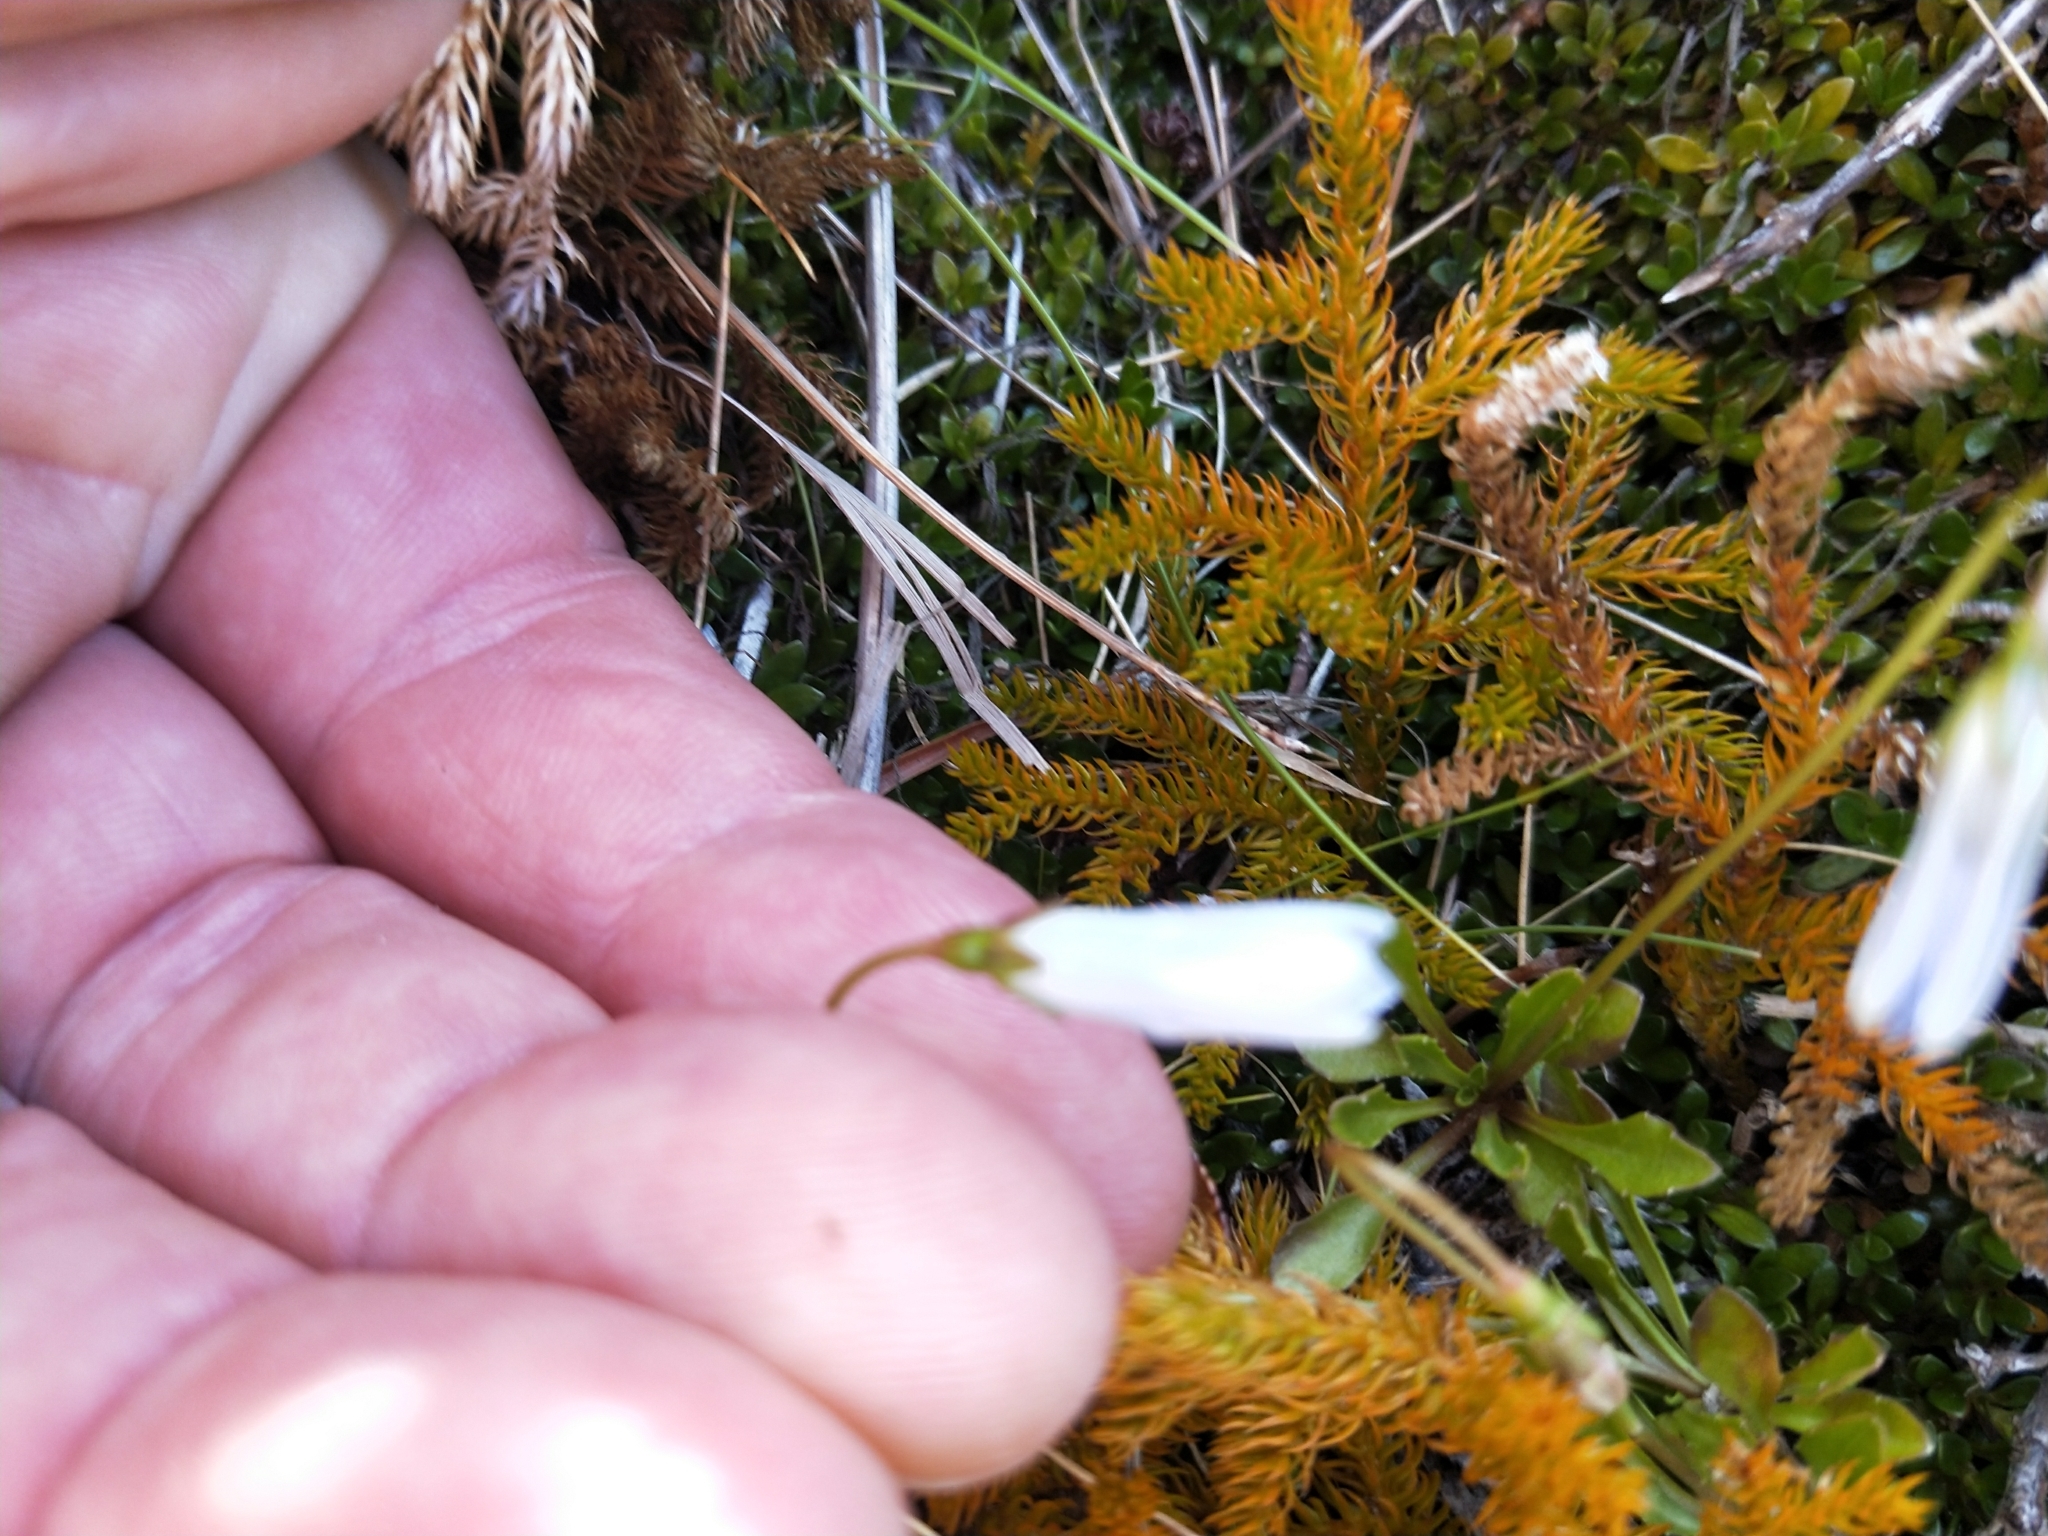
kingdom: Plantae
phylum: Tracheophyta
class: Magnoliopsida
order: Asterales
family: Campanulaceae
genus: Wahlenbergia
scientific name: Wahlenbergia albomarginata
